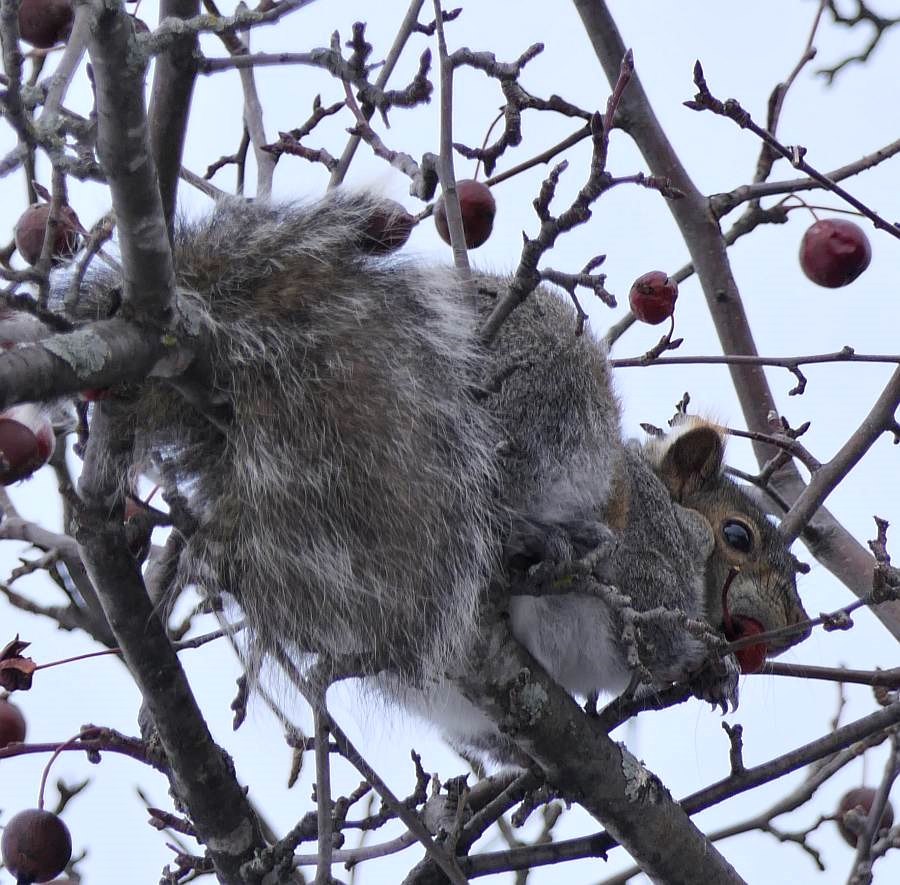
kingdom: Animalia
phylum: Chordata
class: Mammalia
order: Rodentia
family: Sciuridae
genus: Sciurus
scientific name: Sciurus carolinensis
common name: Eastern gray squirrel
